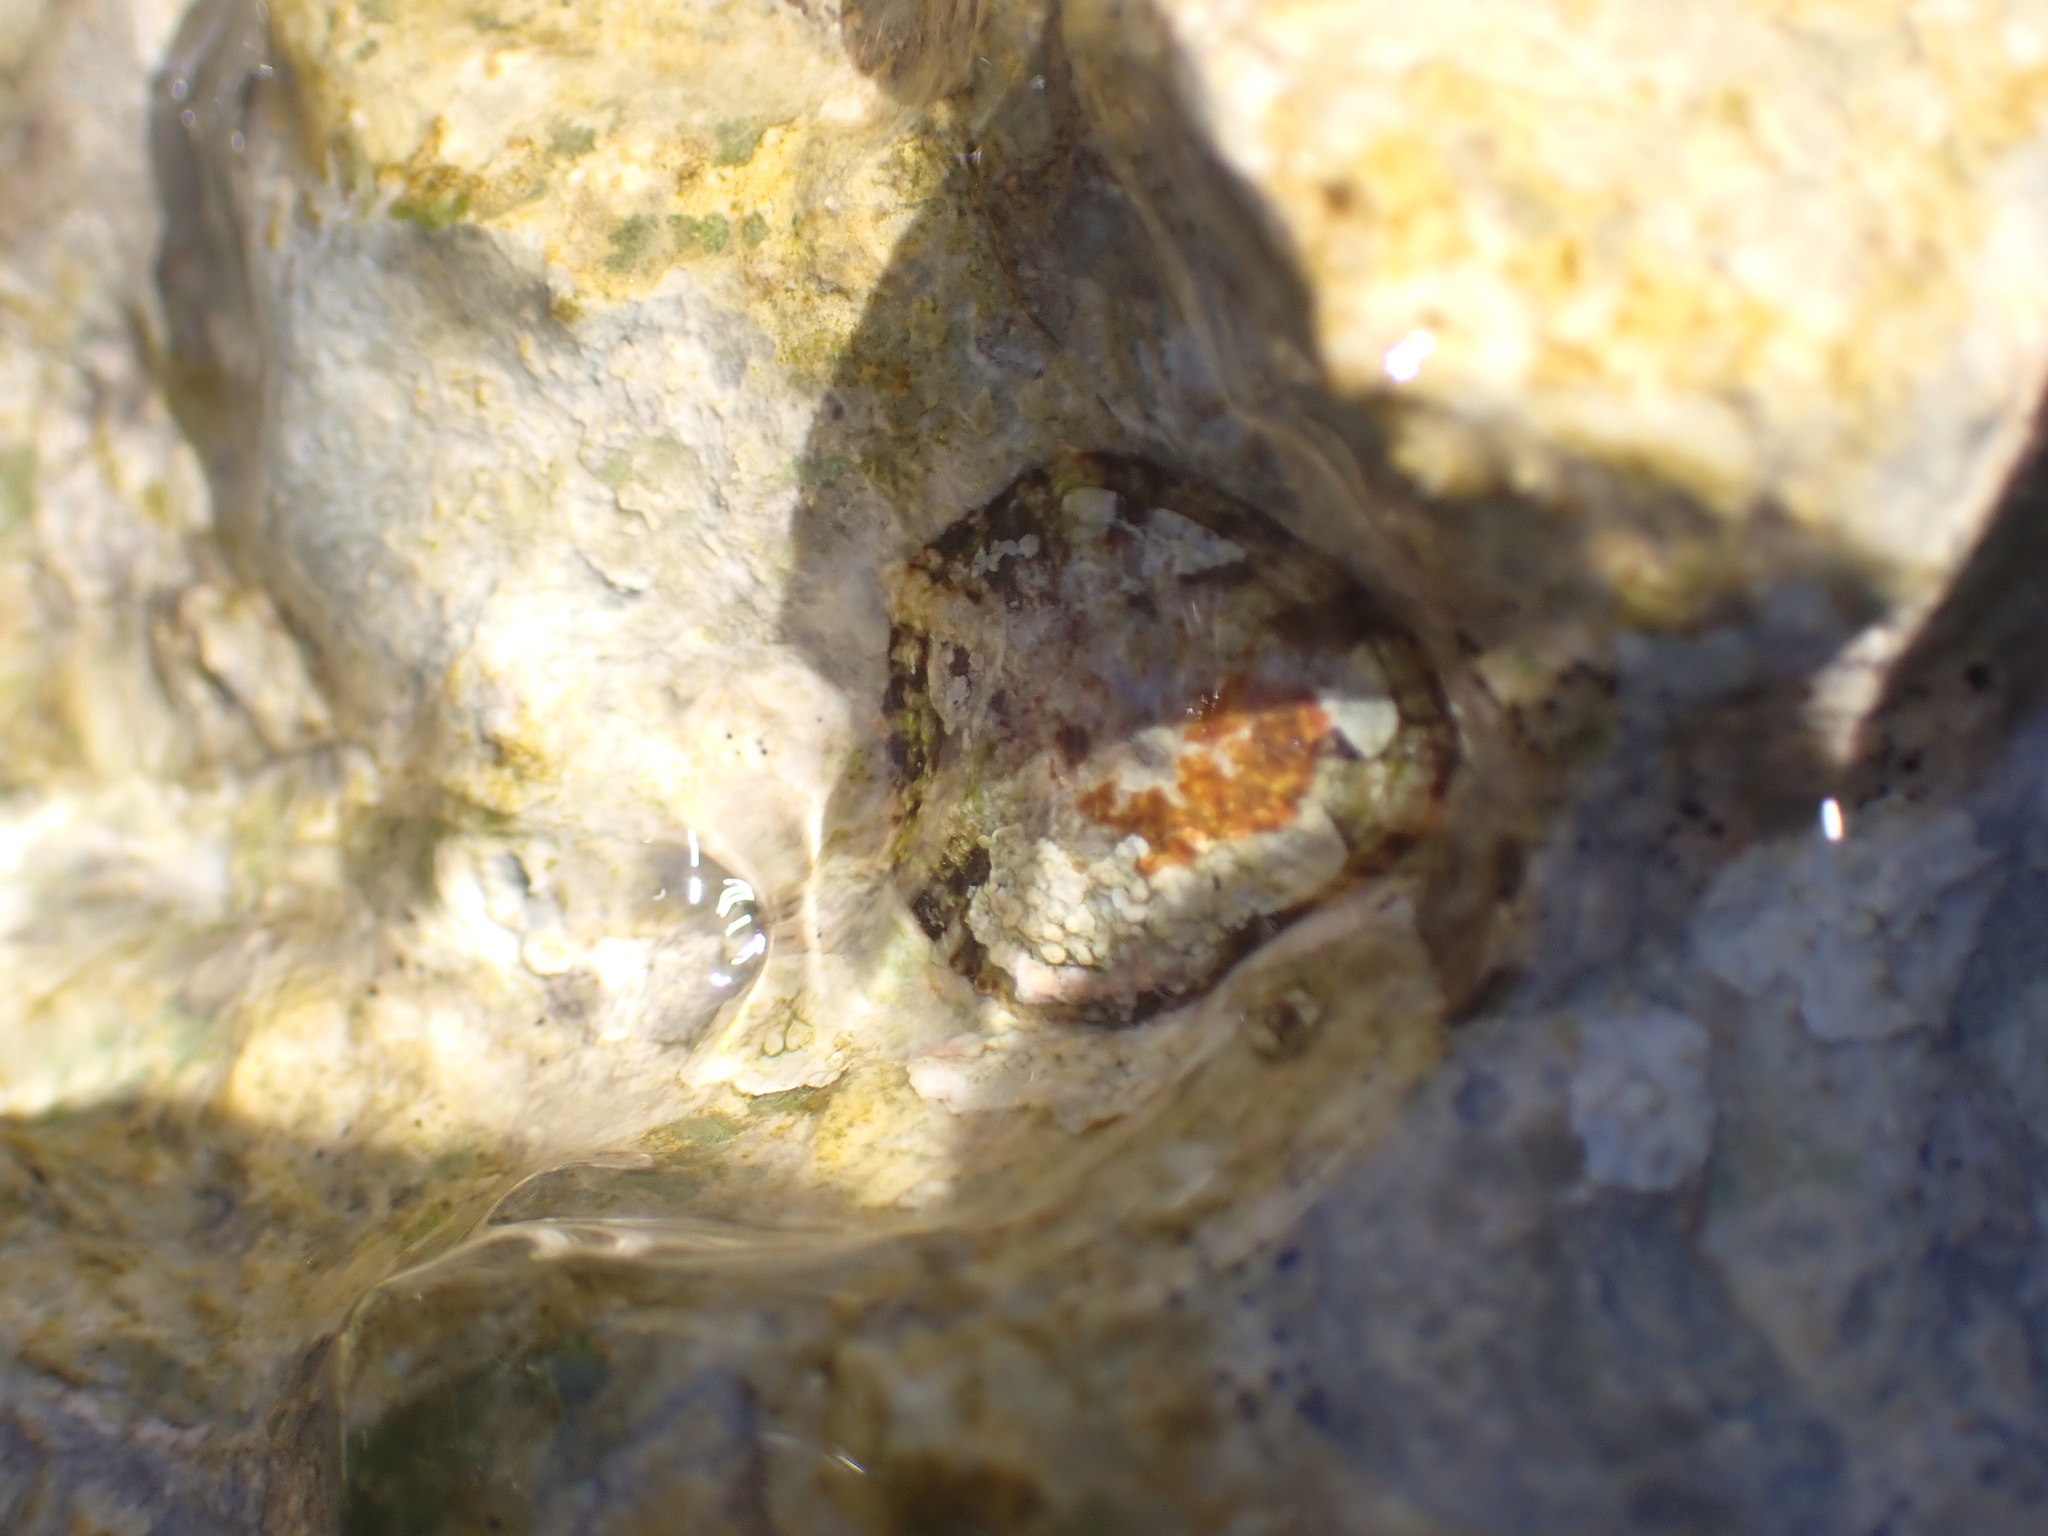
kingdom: Animalia
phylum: Mollusca
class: Gastropoda
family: Patellidae
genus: Patella
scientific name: Patella caerulea
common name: Mediterranean limpet
